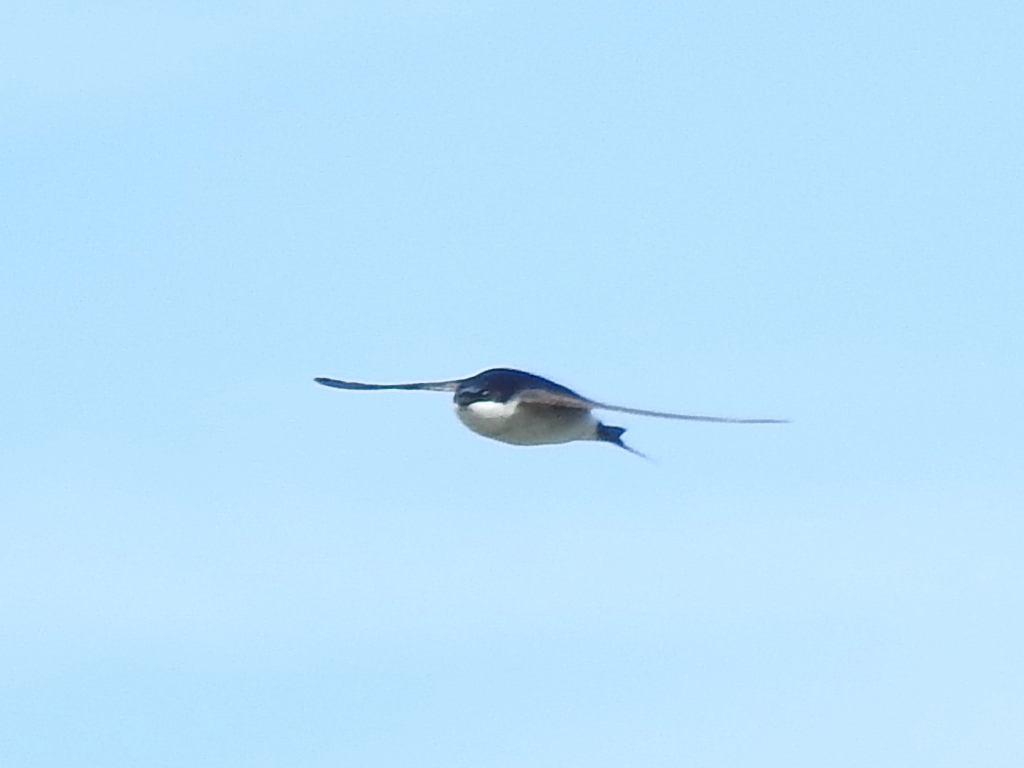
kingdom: Animalia
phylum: Chordata
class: Aves
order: Passeriformes
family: Hirundinidae
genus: Delichon
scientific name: Delichon urbicum
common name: Common house martin
